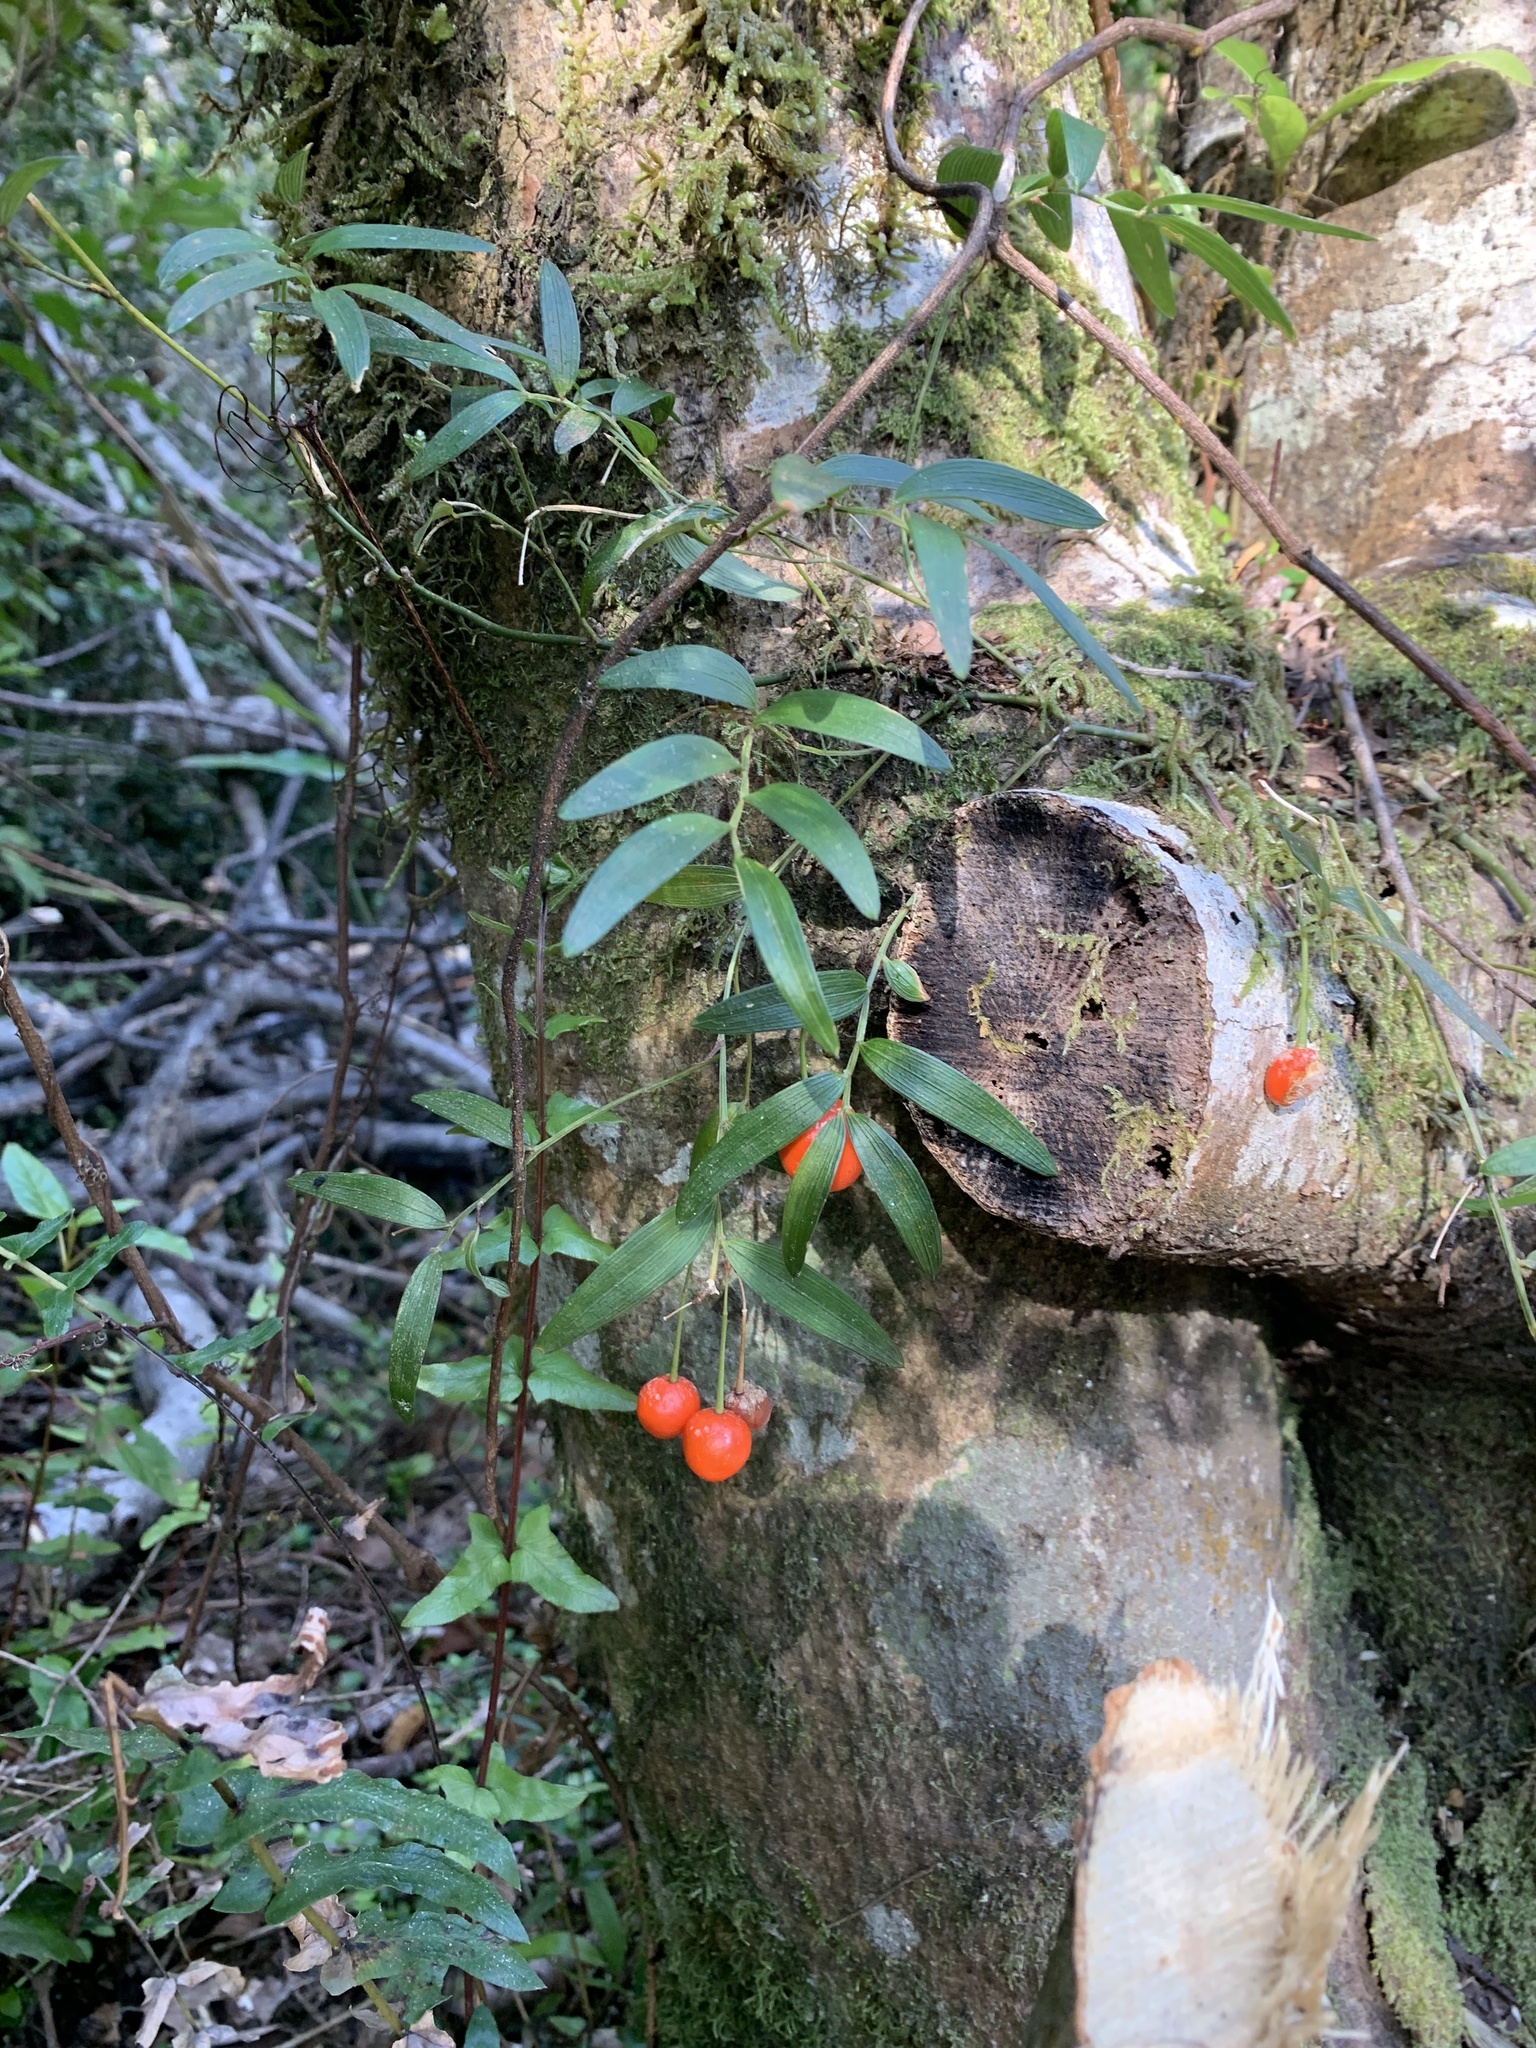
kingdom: Plantae
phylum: Tracheophyta
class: Liliopsida
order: Liliales
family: Alstroemeriaceae
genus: Luzuriaga
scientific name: Luzuriaga radicans
